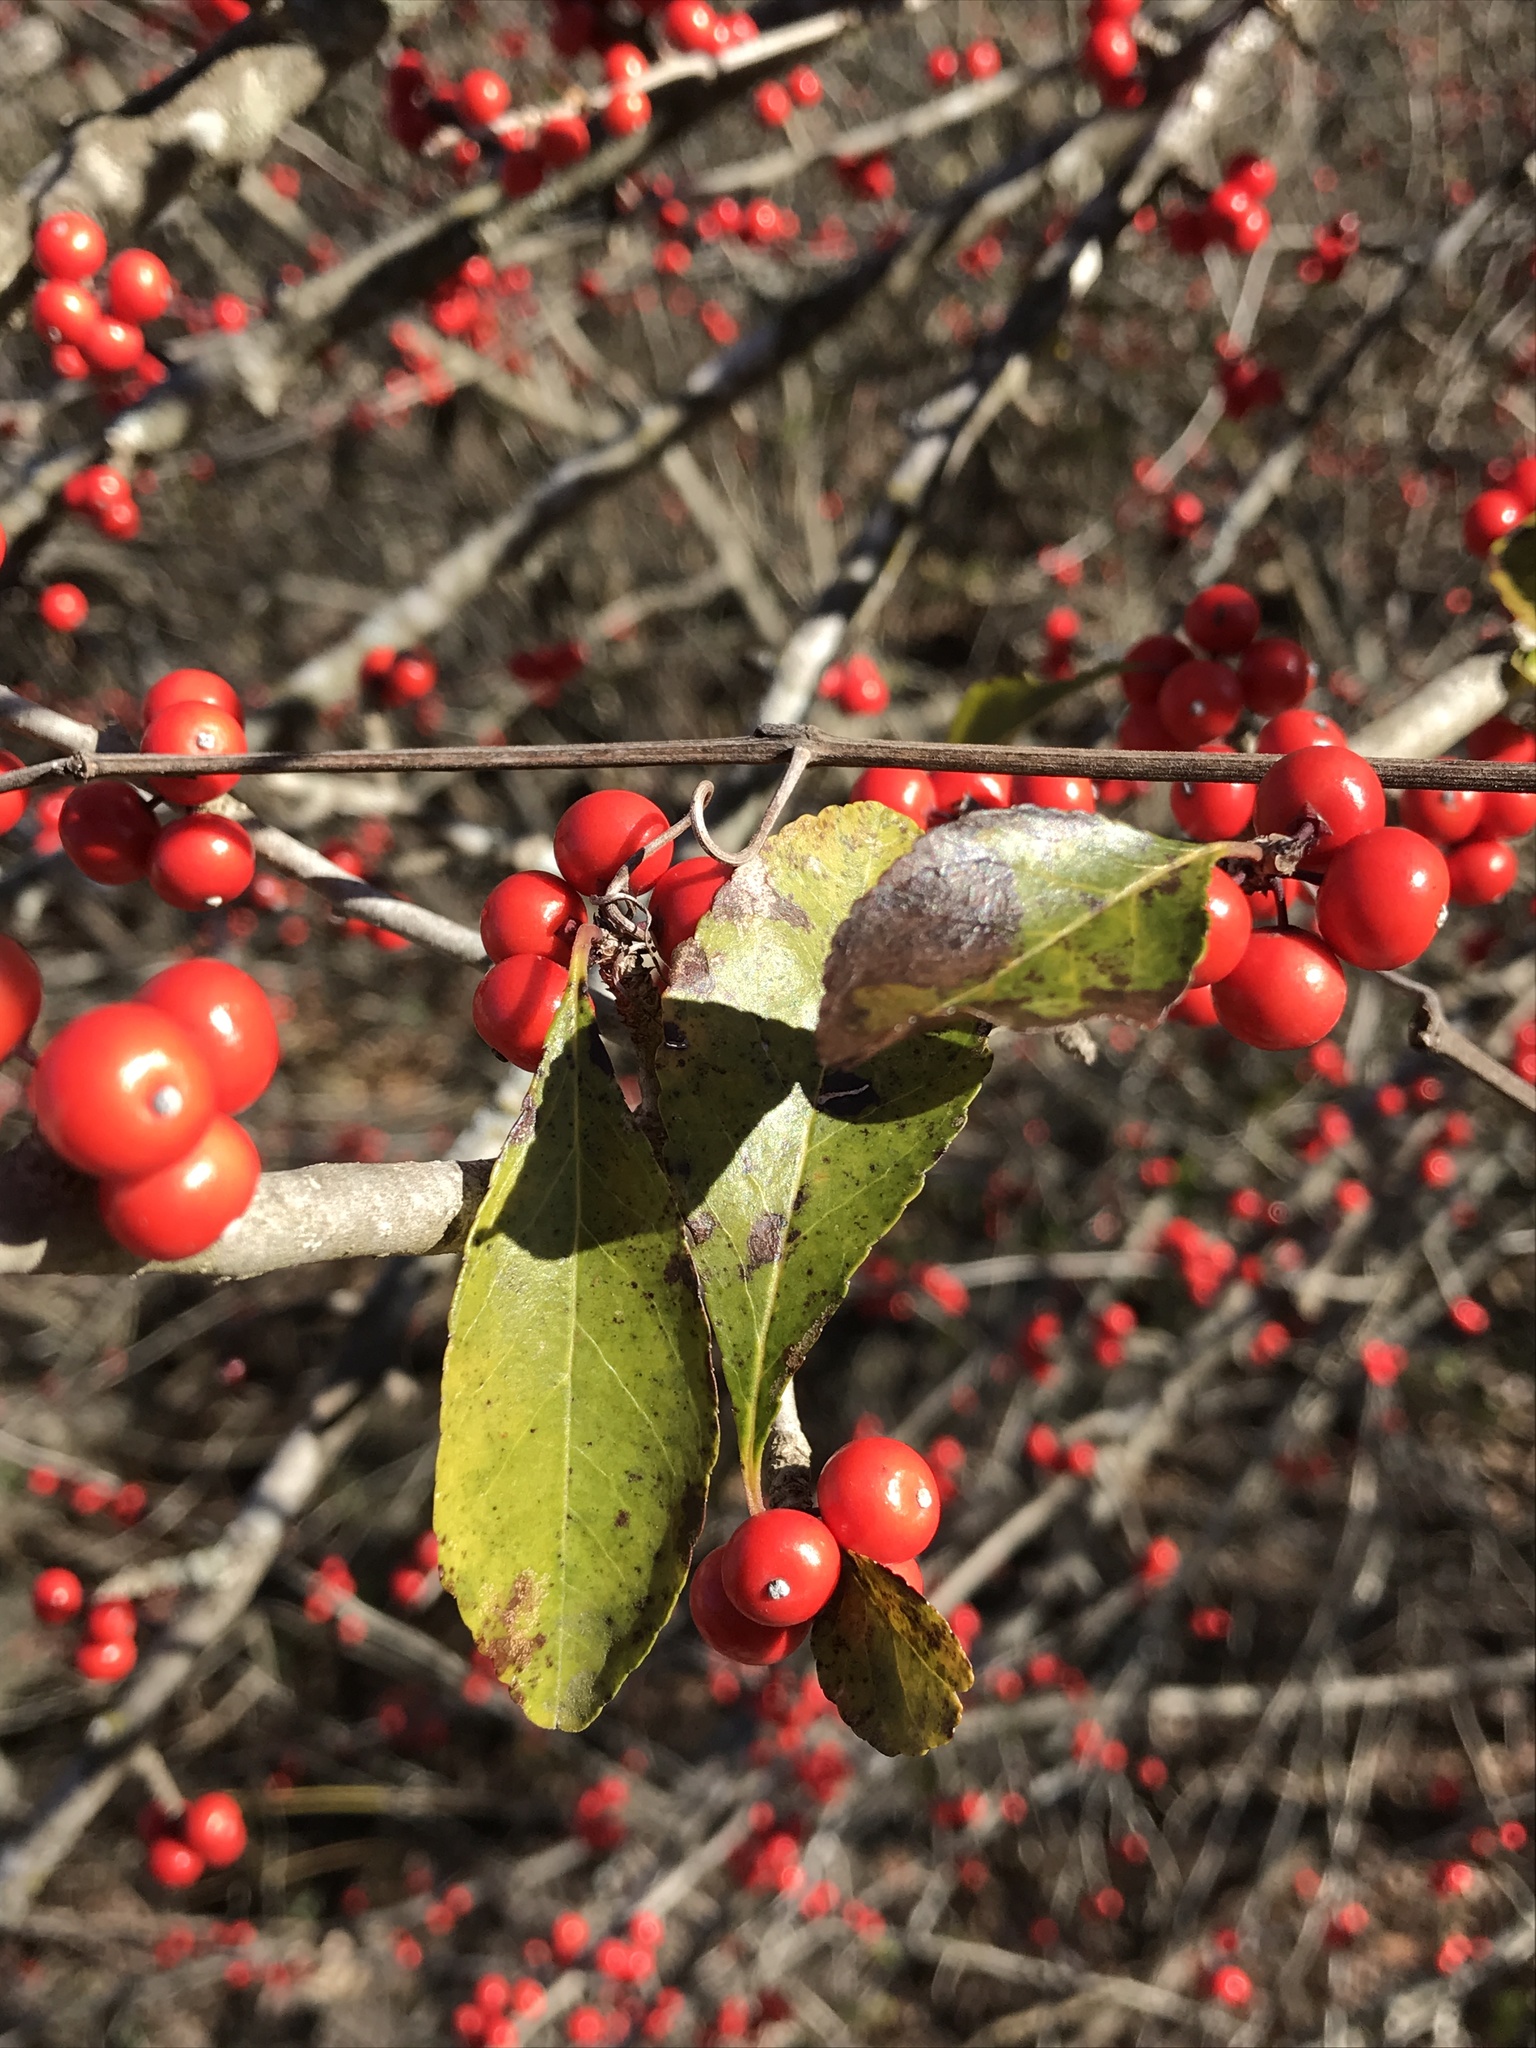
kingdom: Plantae
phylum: Tracheophyta
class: Magnoliopsida
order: Aquifoliales
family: Aquifoliaceae
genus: Ilex
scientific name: Ilex decidua
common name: Possum-haw
